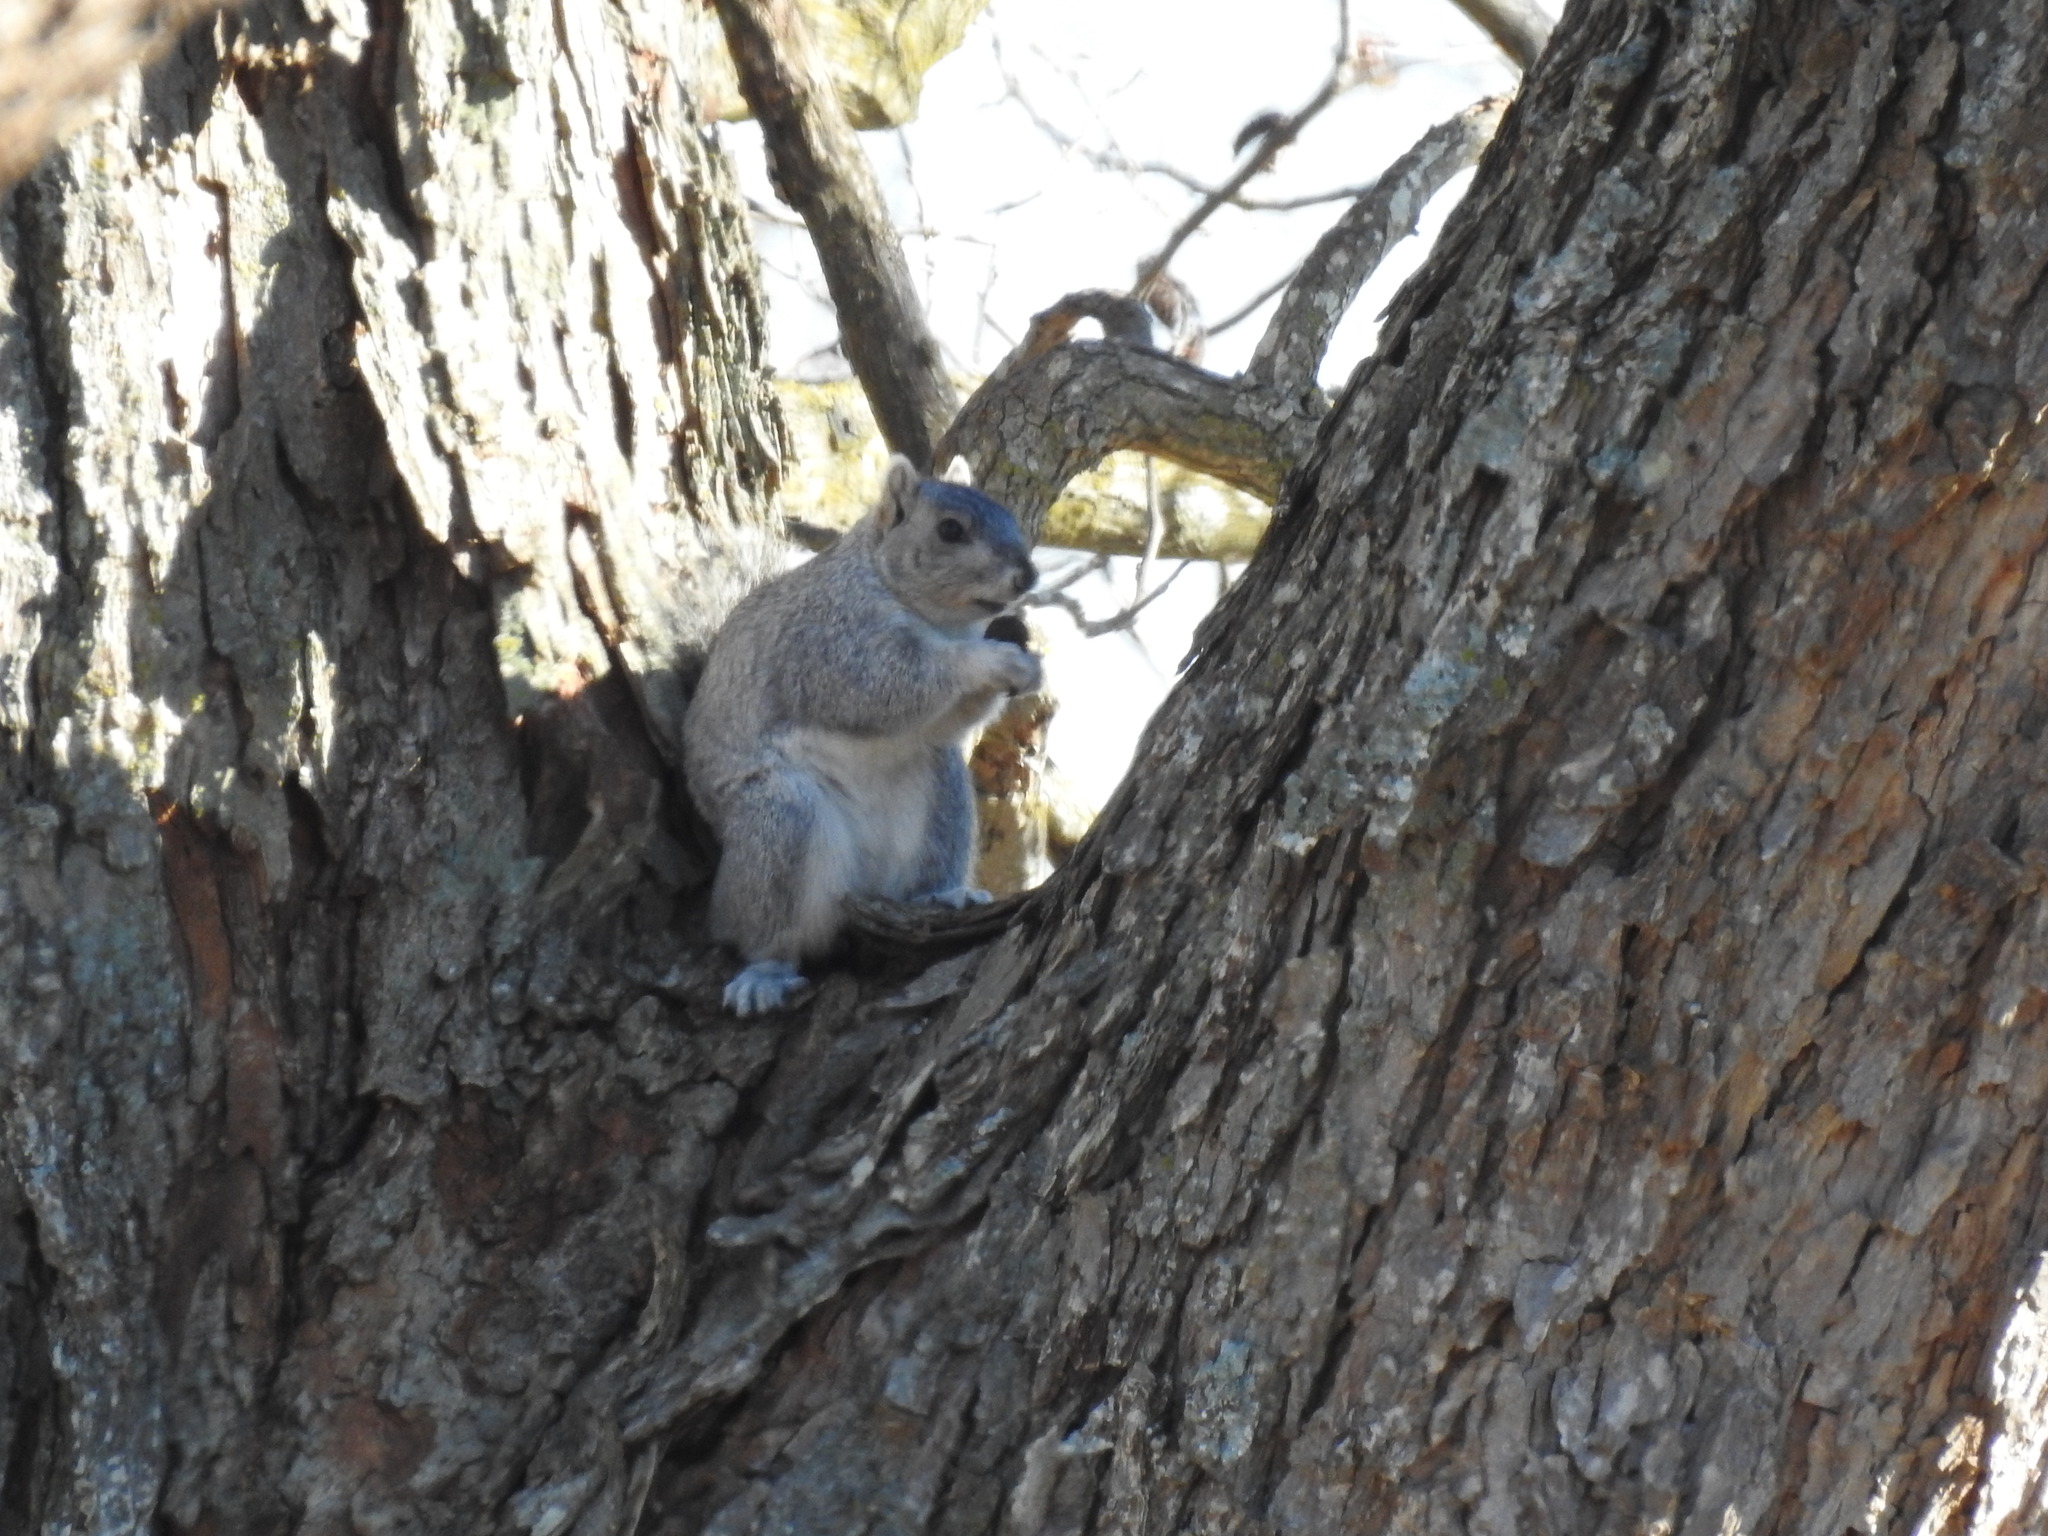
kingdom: Animalia
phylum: Chordata
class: Mammalia
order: Rodentia
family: Sciuridae
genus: Sciurus
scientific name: Sciurus niger
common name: Fox squirrel
